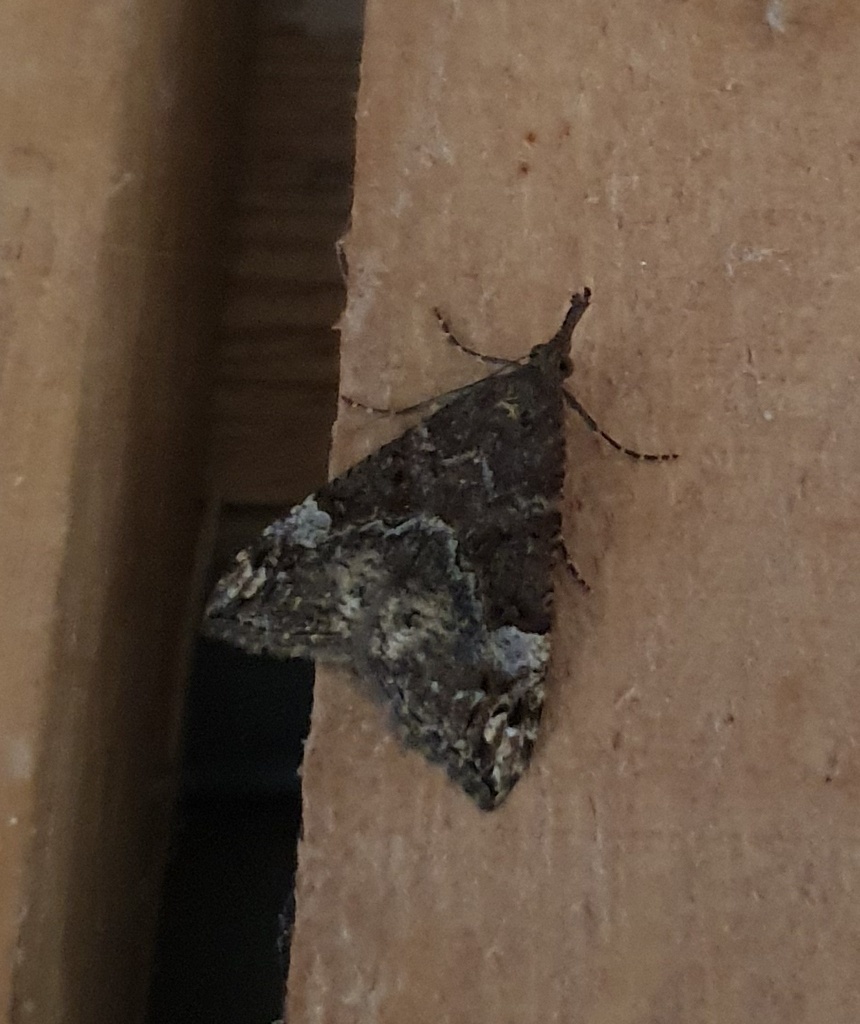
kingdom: Animalia
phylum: Arthropoda
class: Insecta
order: Lepidoptera
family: Erebidae
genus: Hypena
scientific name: Hypena obsitalis
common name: Bloxworth snout
